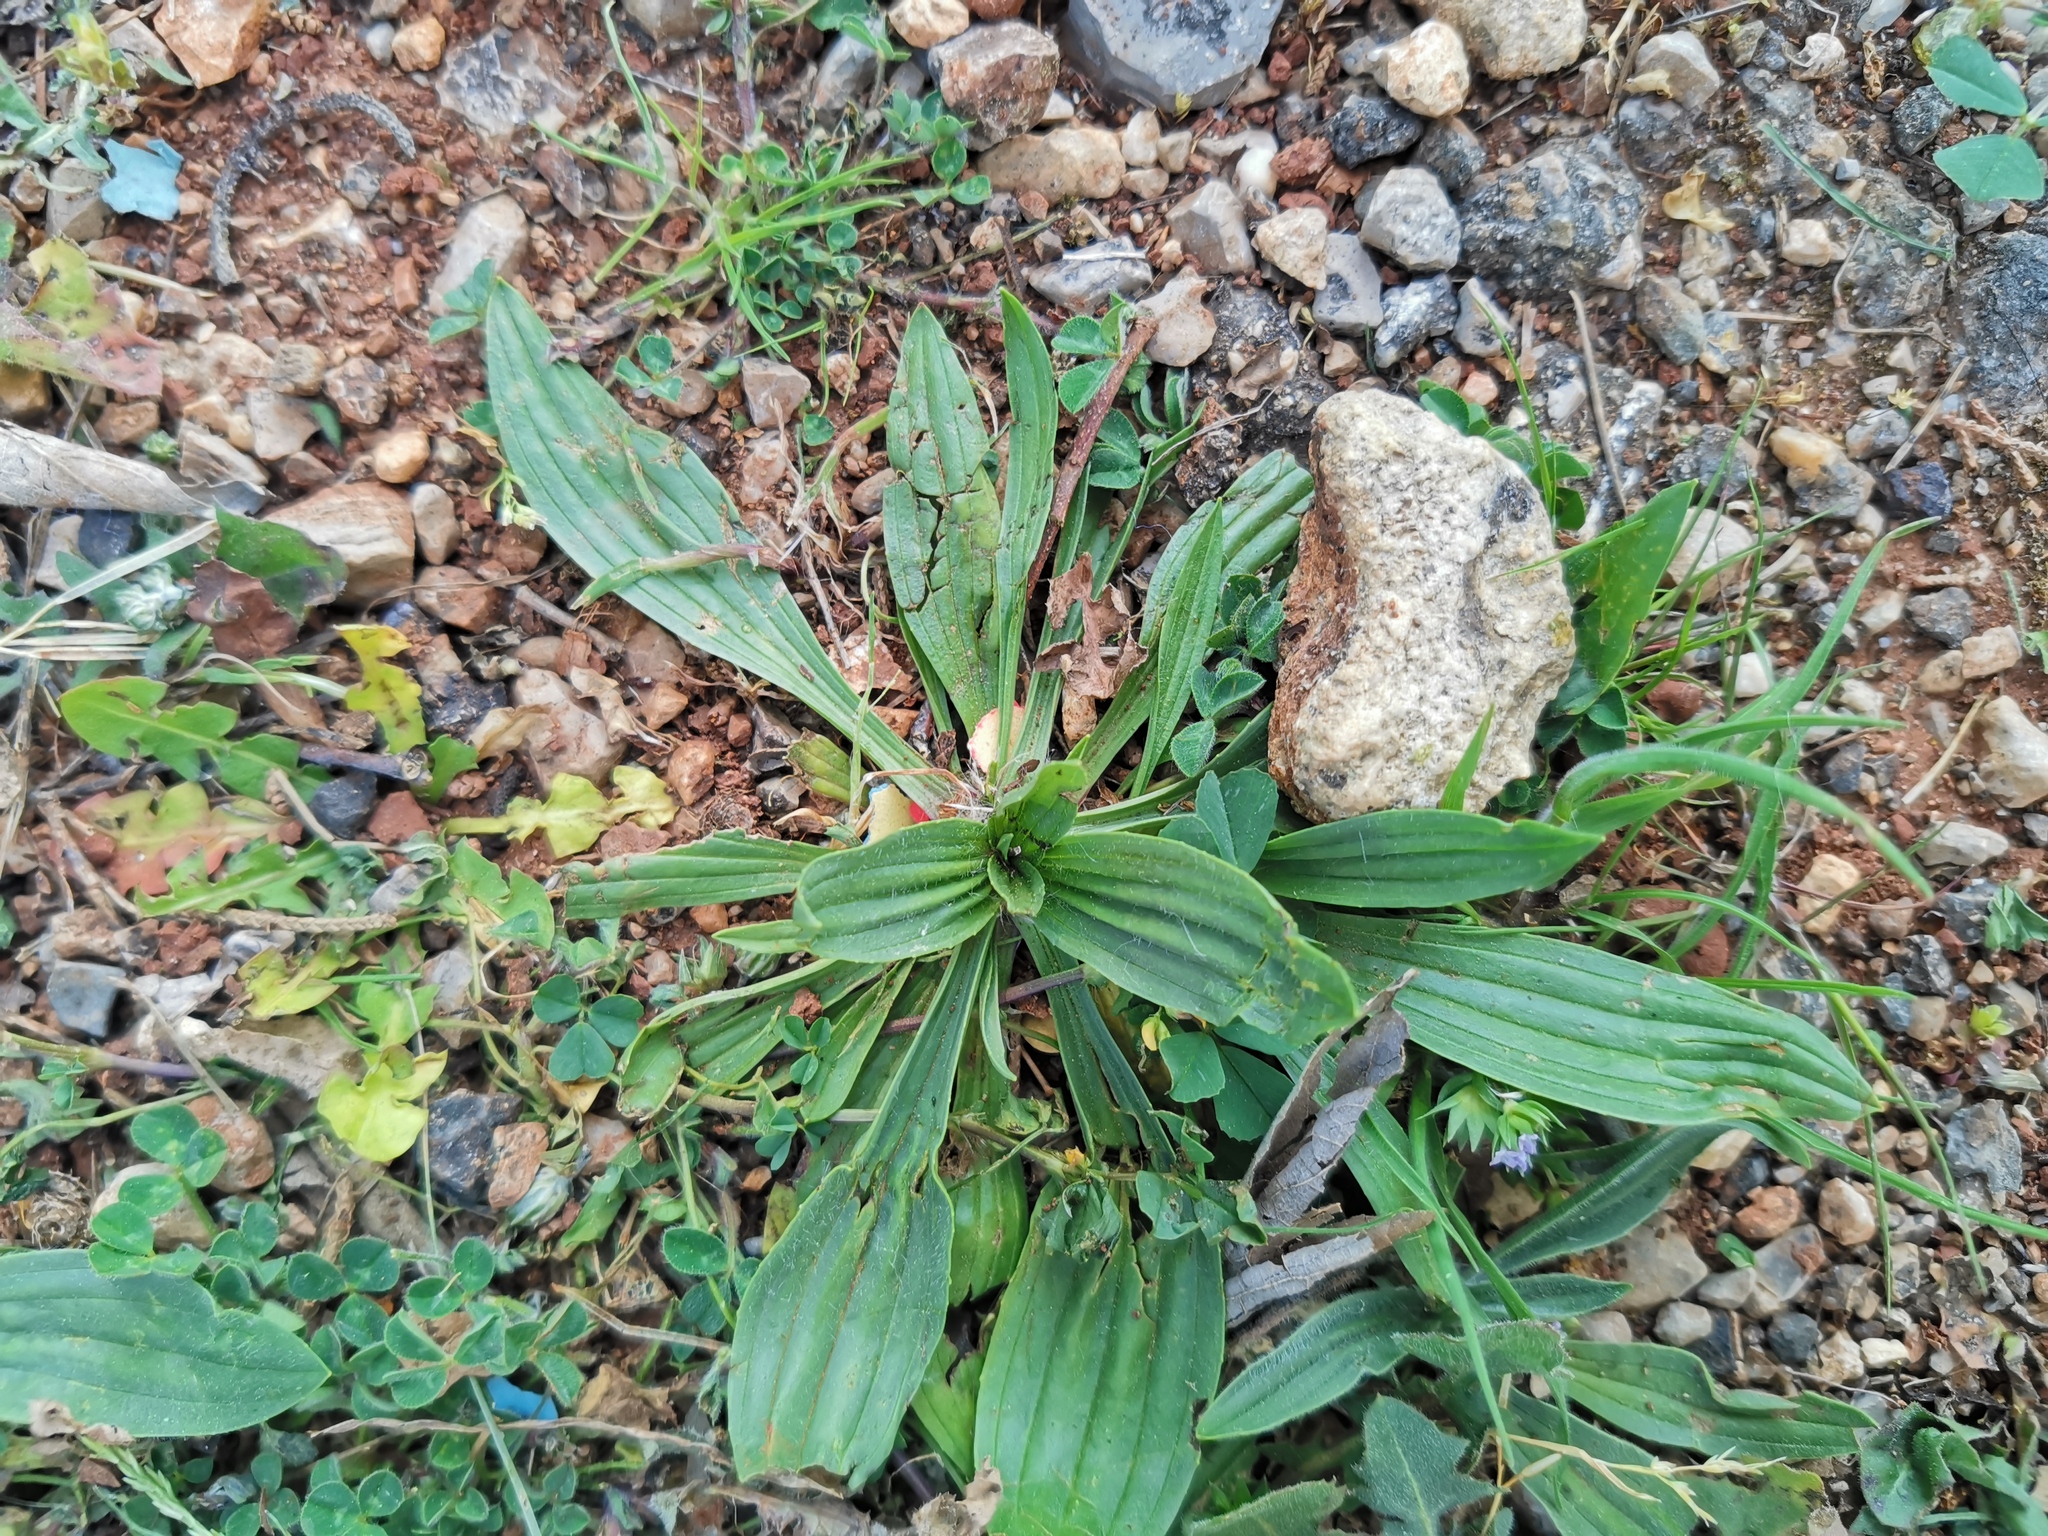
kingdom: Plantae
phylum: Tracheophyta
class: Magnoliopsida
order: Lamiales
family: Plantaginaceae
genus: Plantago
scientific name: Plantago lanceolata
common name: Ribwort plantain
